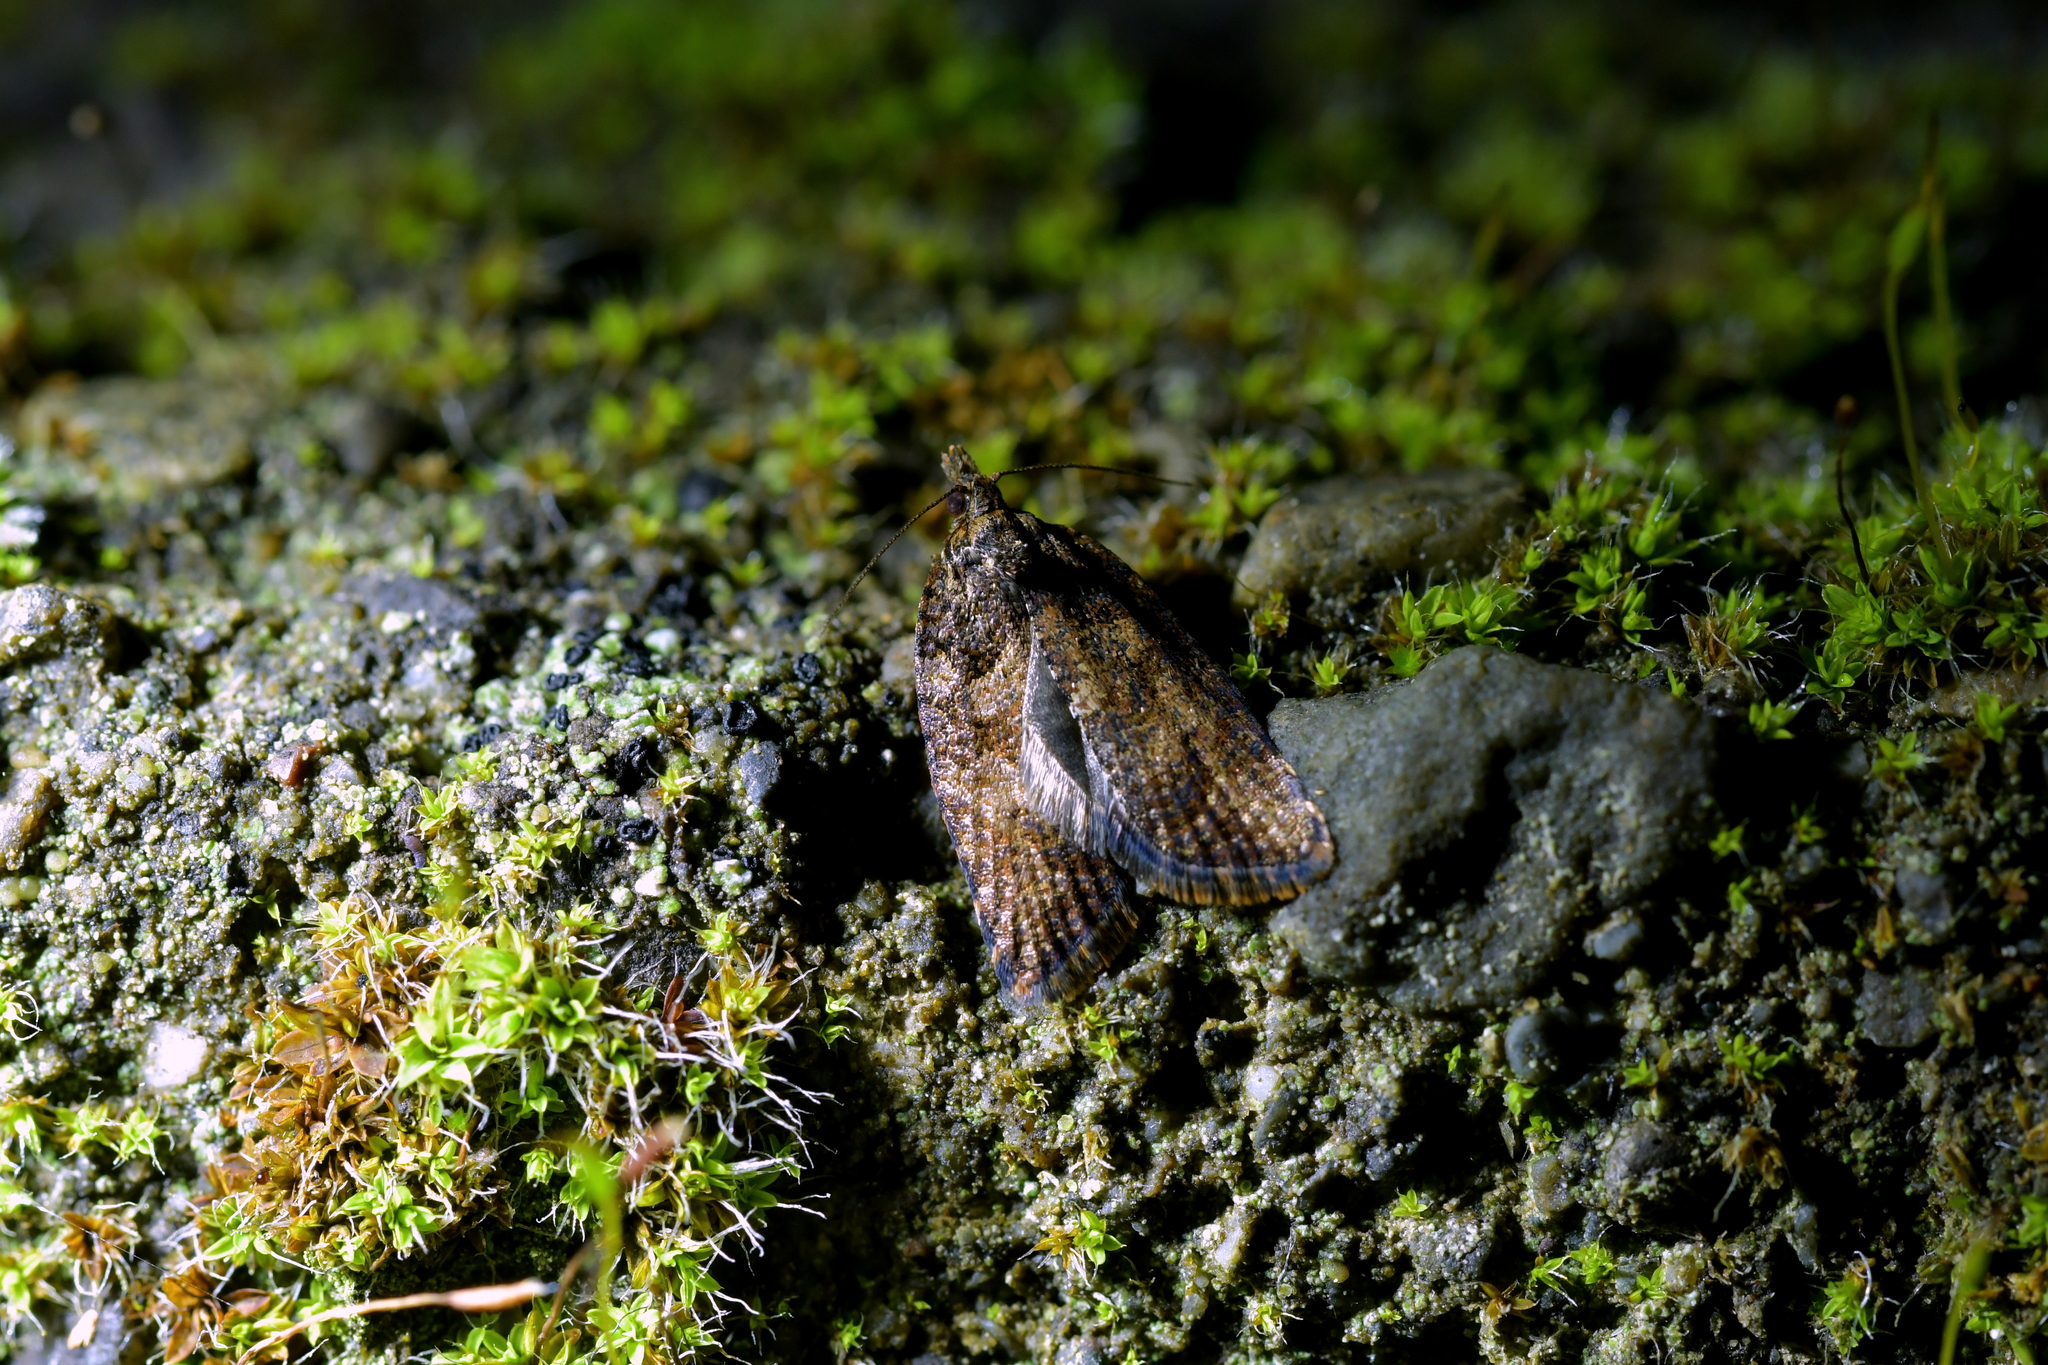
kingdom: Animalia
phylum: Arthropoda
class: Insecta
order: Lepidoptera
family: Tortricidae
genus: Capua
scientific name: Capua intractana
